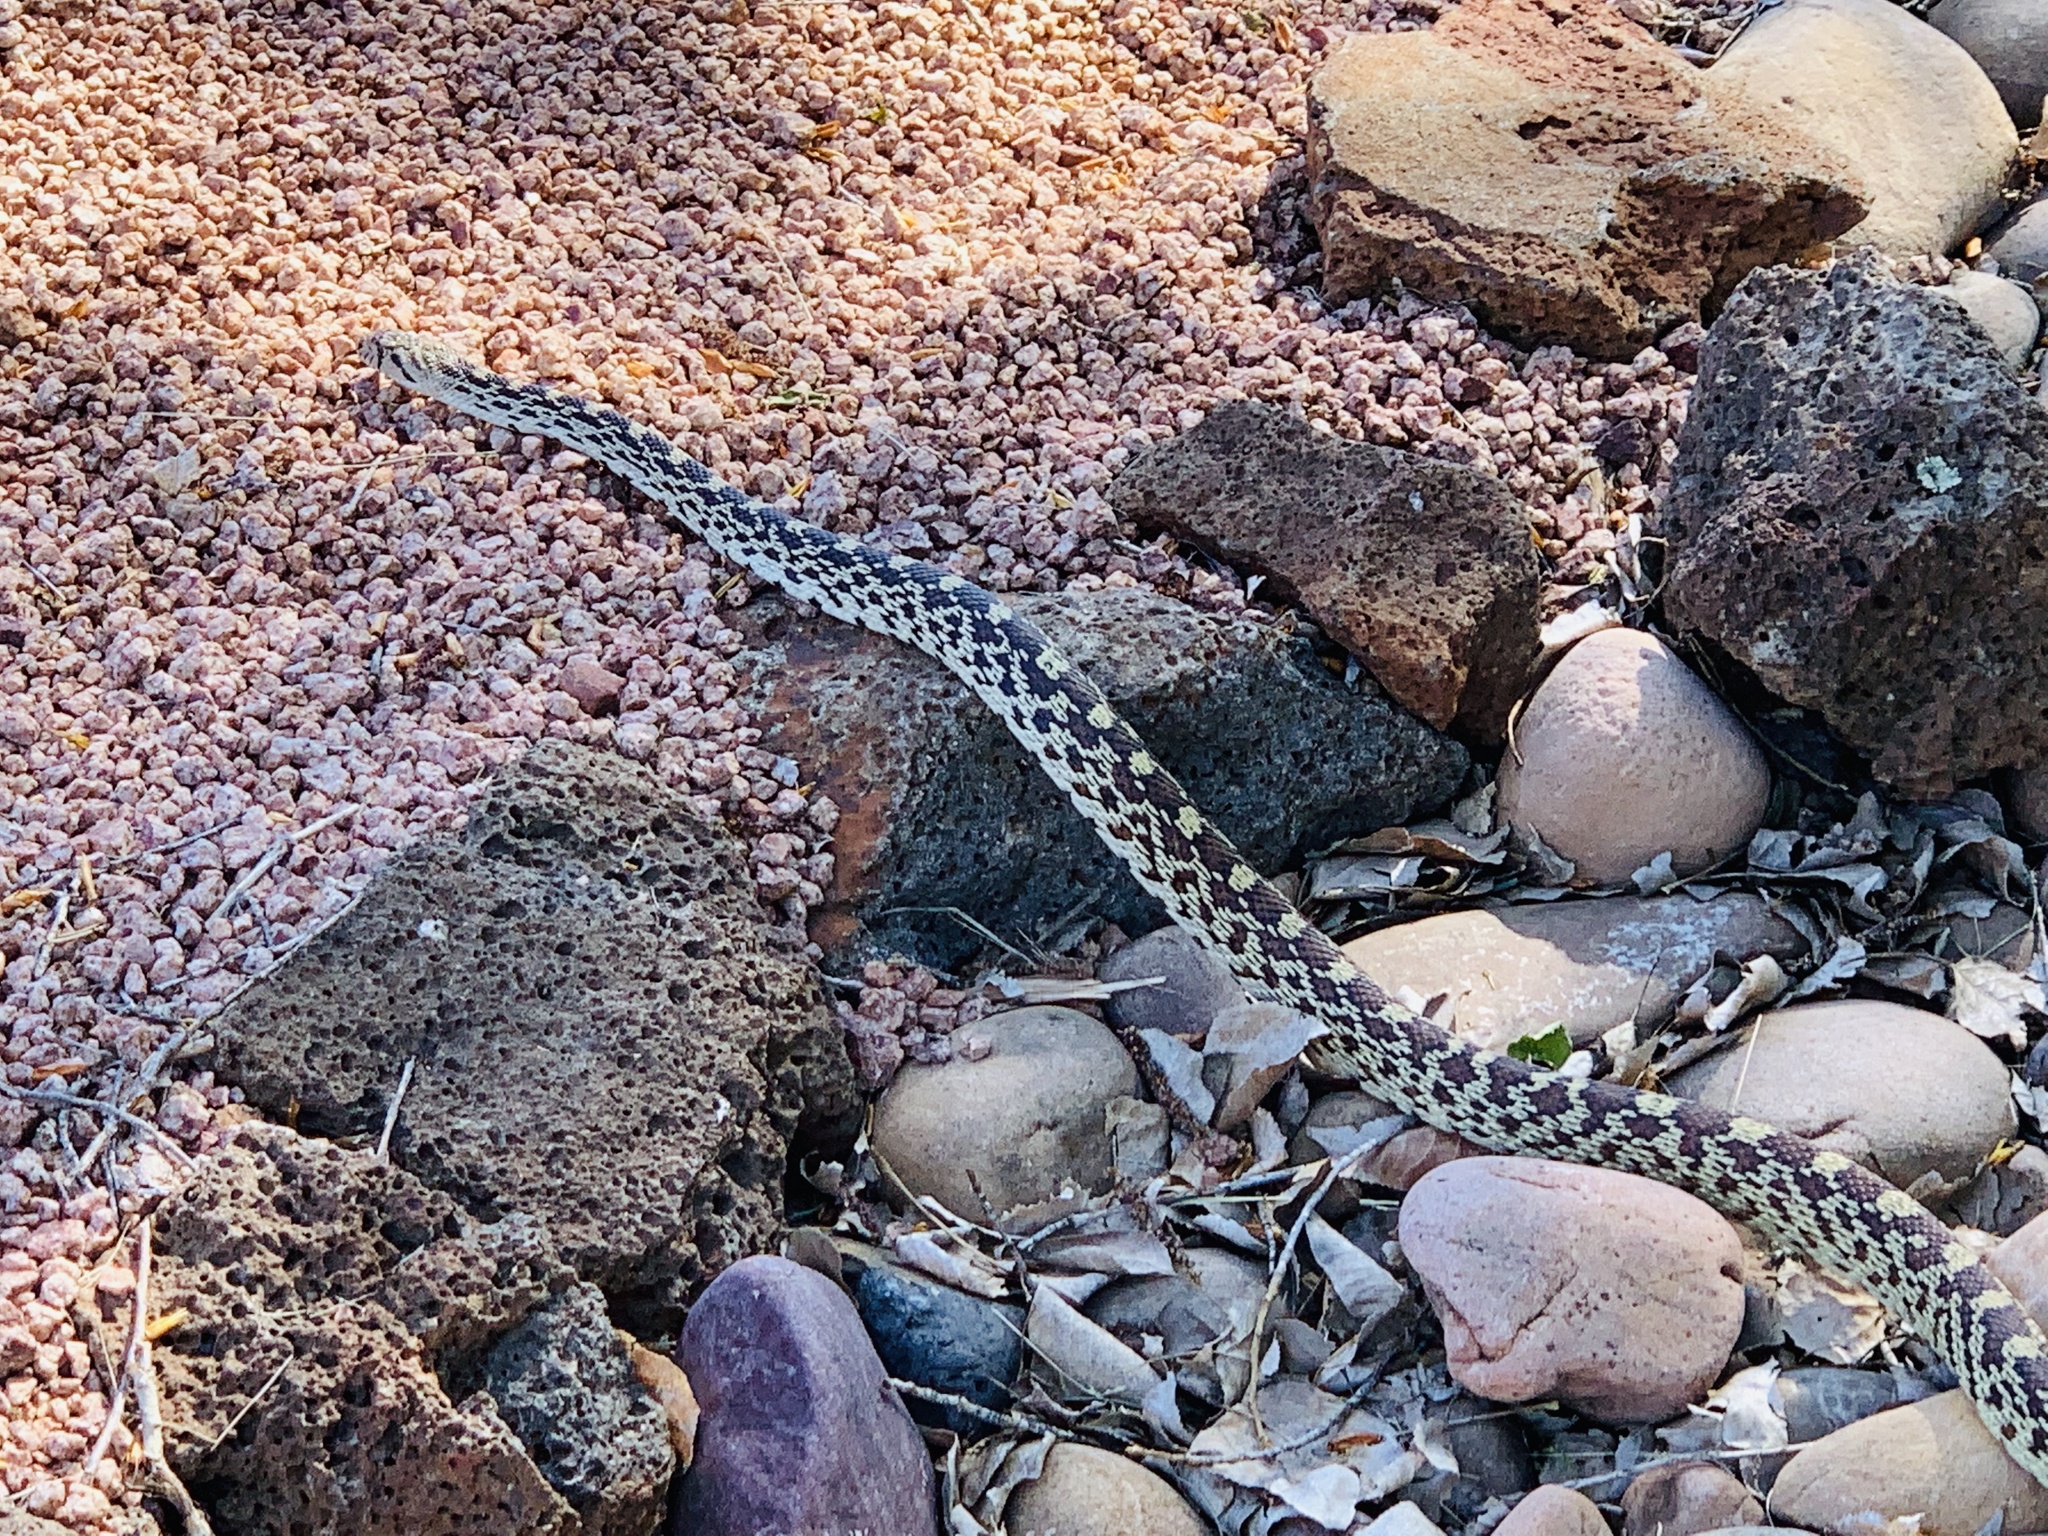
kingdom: Animalia
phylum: Chordata
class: Squamata
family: Colubridae
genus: Pituophis
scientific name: Pituophis catenifer
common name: Gopher snake
